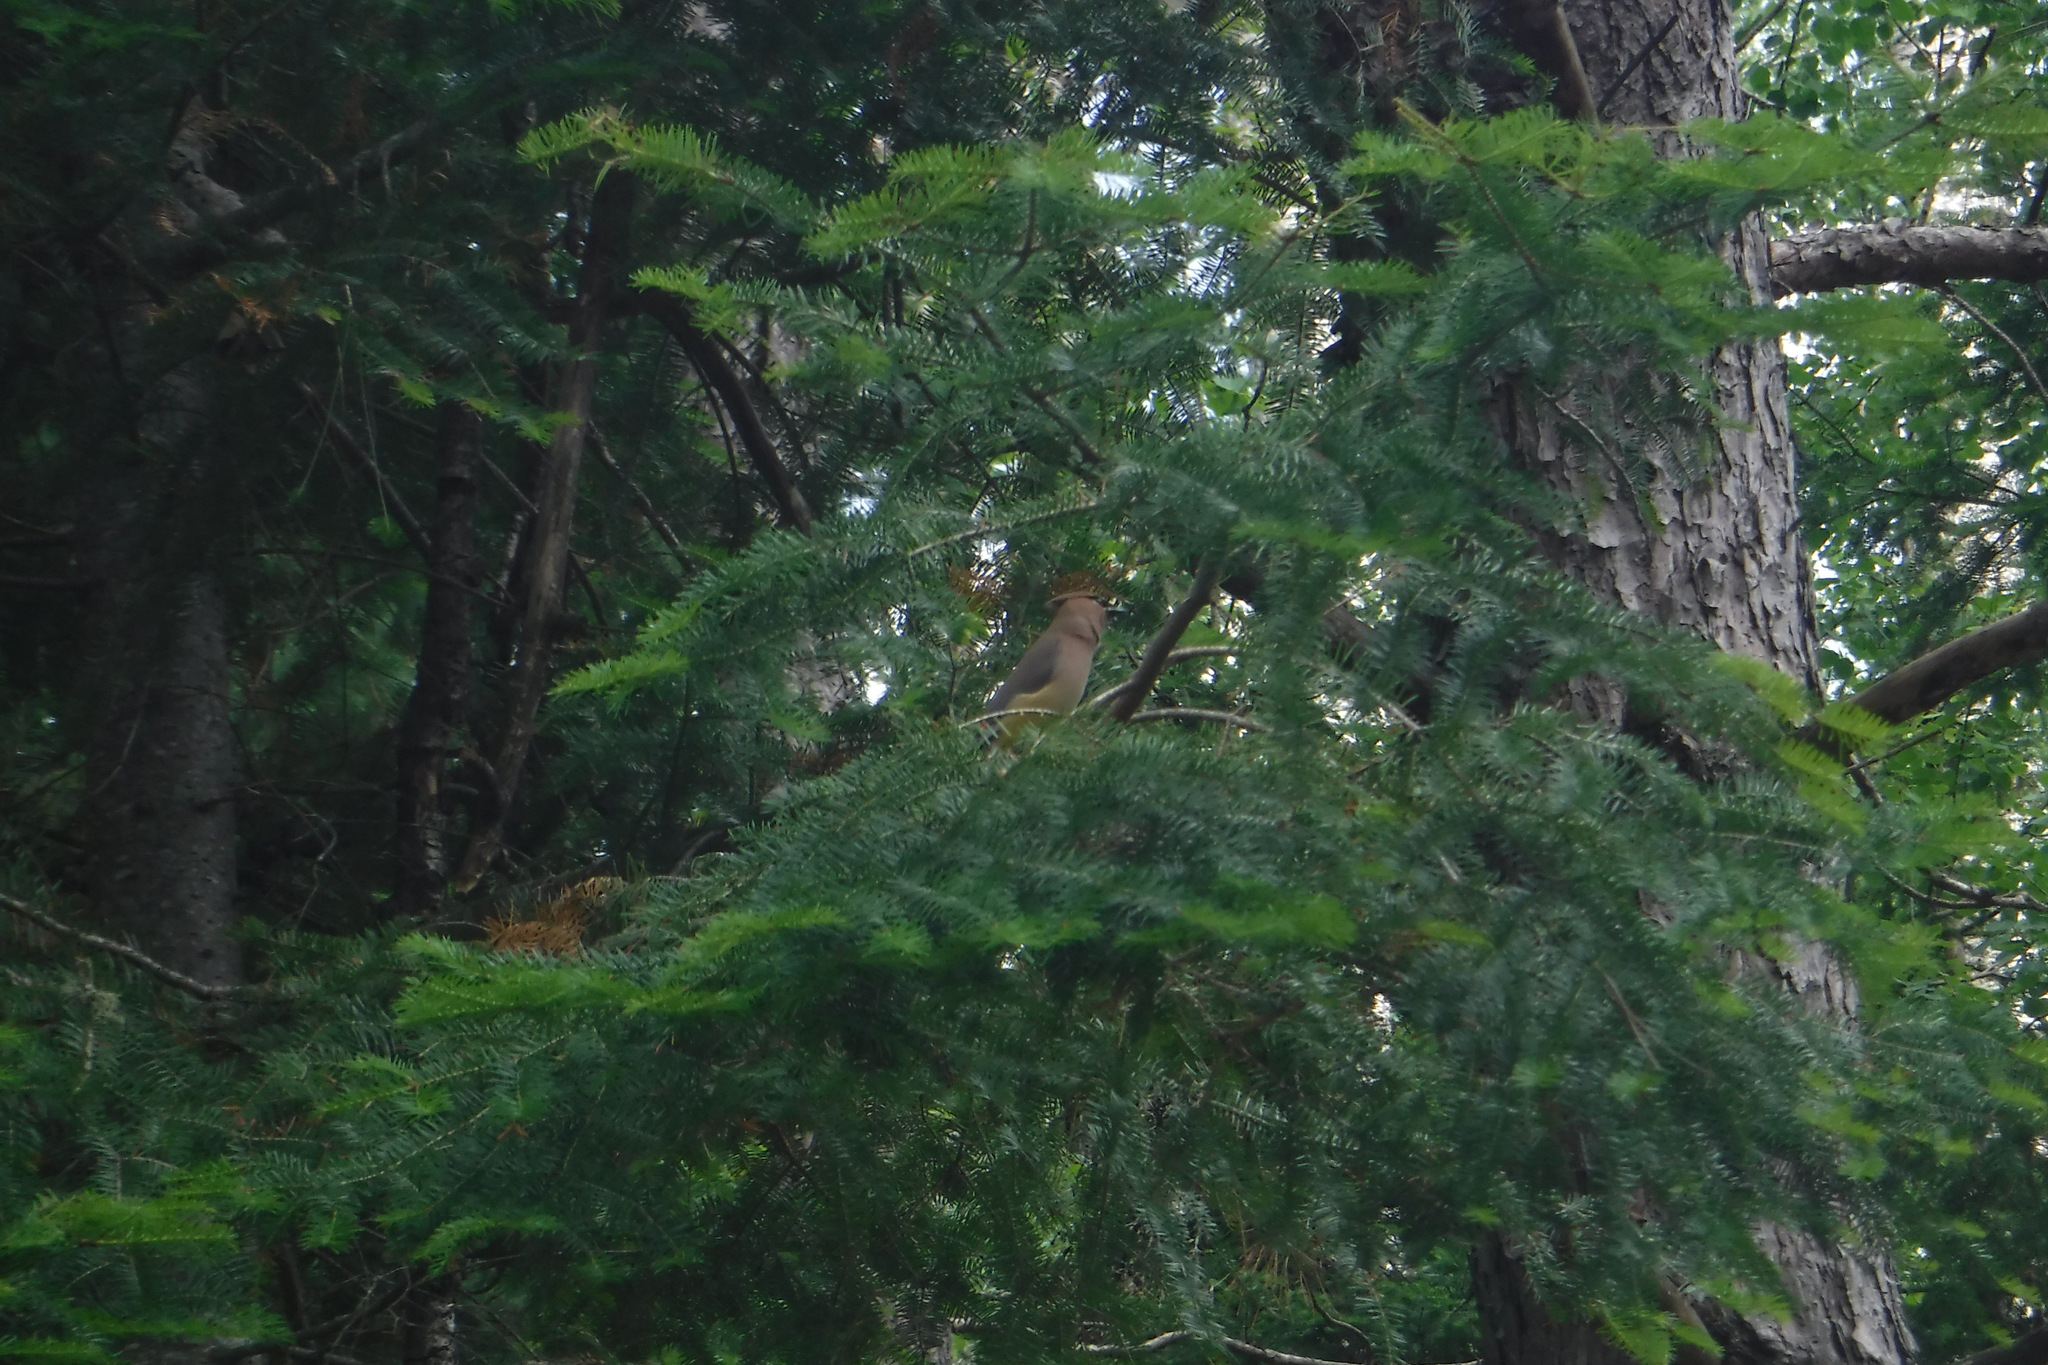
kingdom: Animalia
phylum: Chordata
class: Aves
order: Passeriformes
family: Bombycillidae
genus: Bombycilla
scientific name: Bombycilla cedrorum
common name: Cedar waxwing
